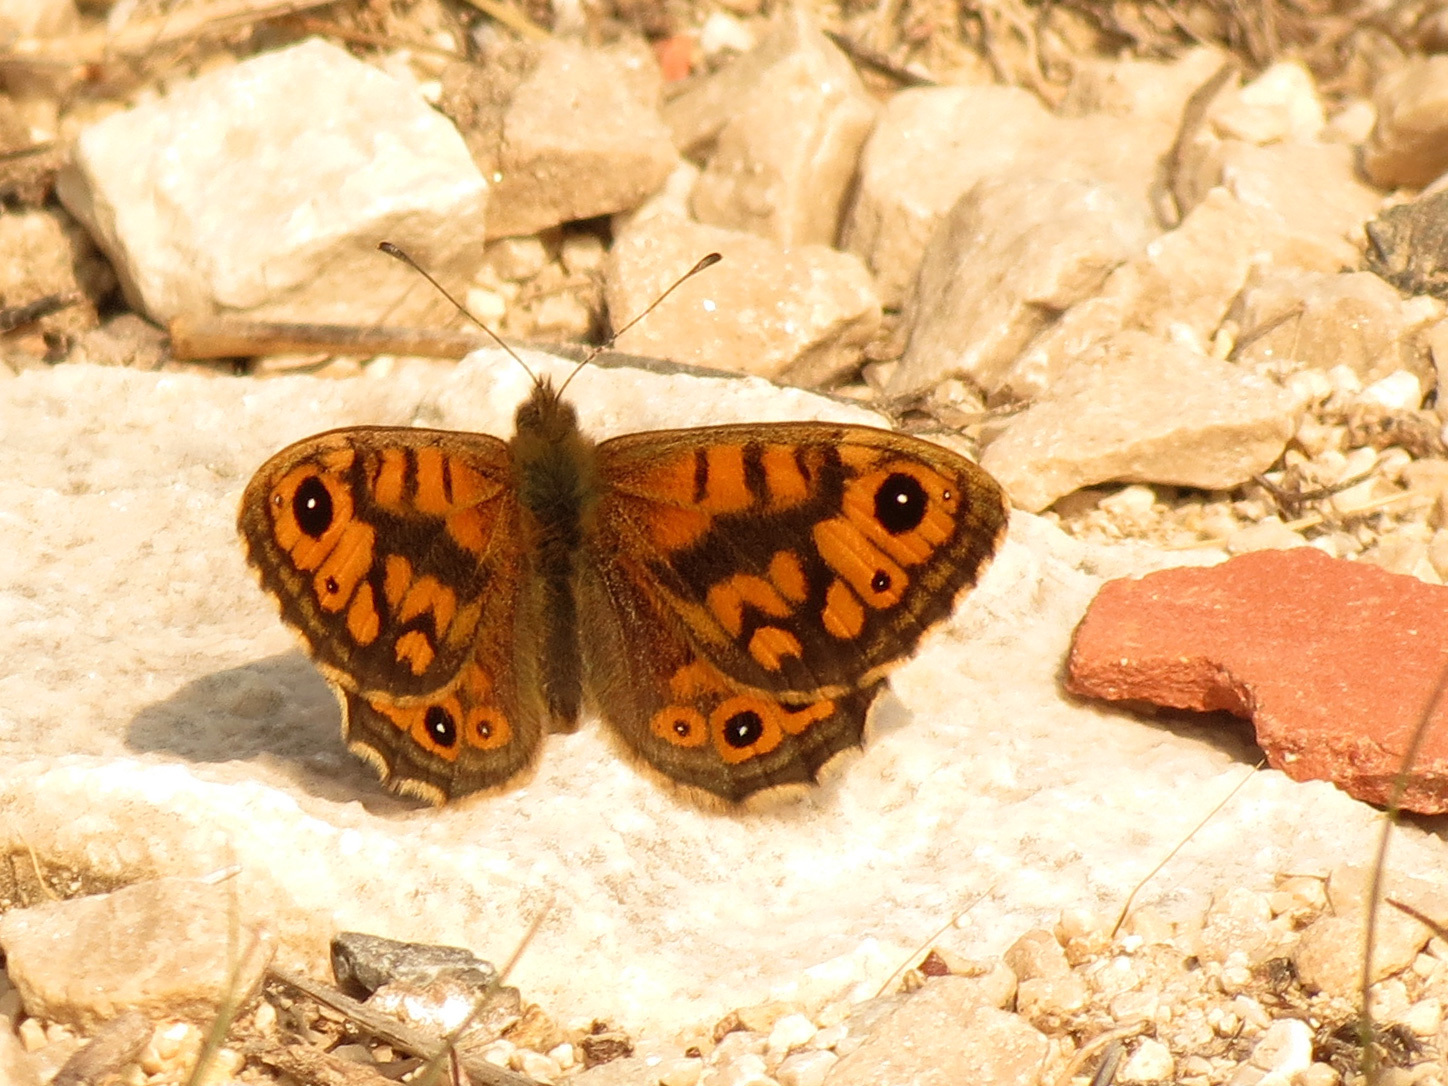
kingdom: Animalia
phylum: Arthropoda
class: Insecta
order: Lepidoptera
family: Nymphalidae
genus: Pararge
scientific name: Pararge Lasiommata megera
